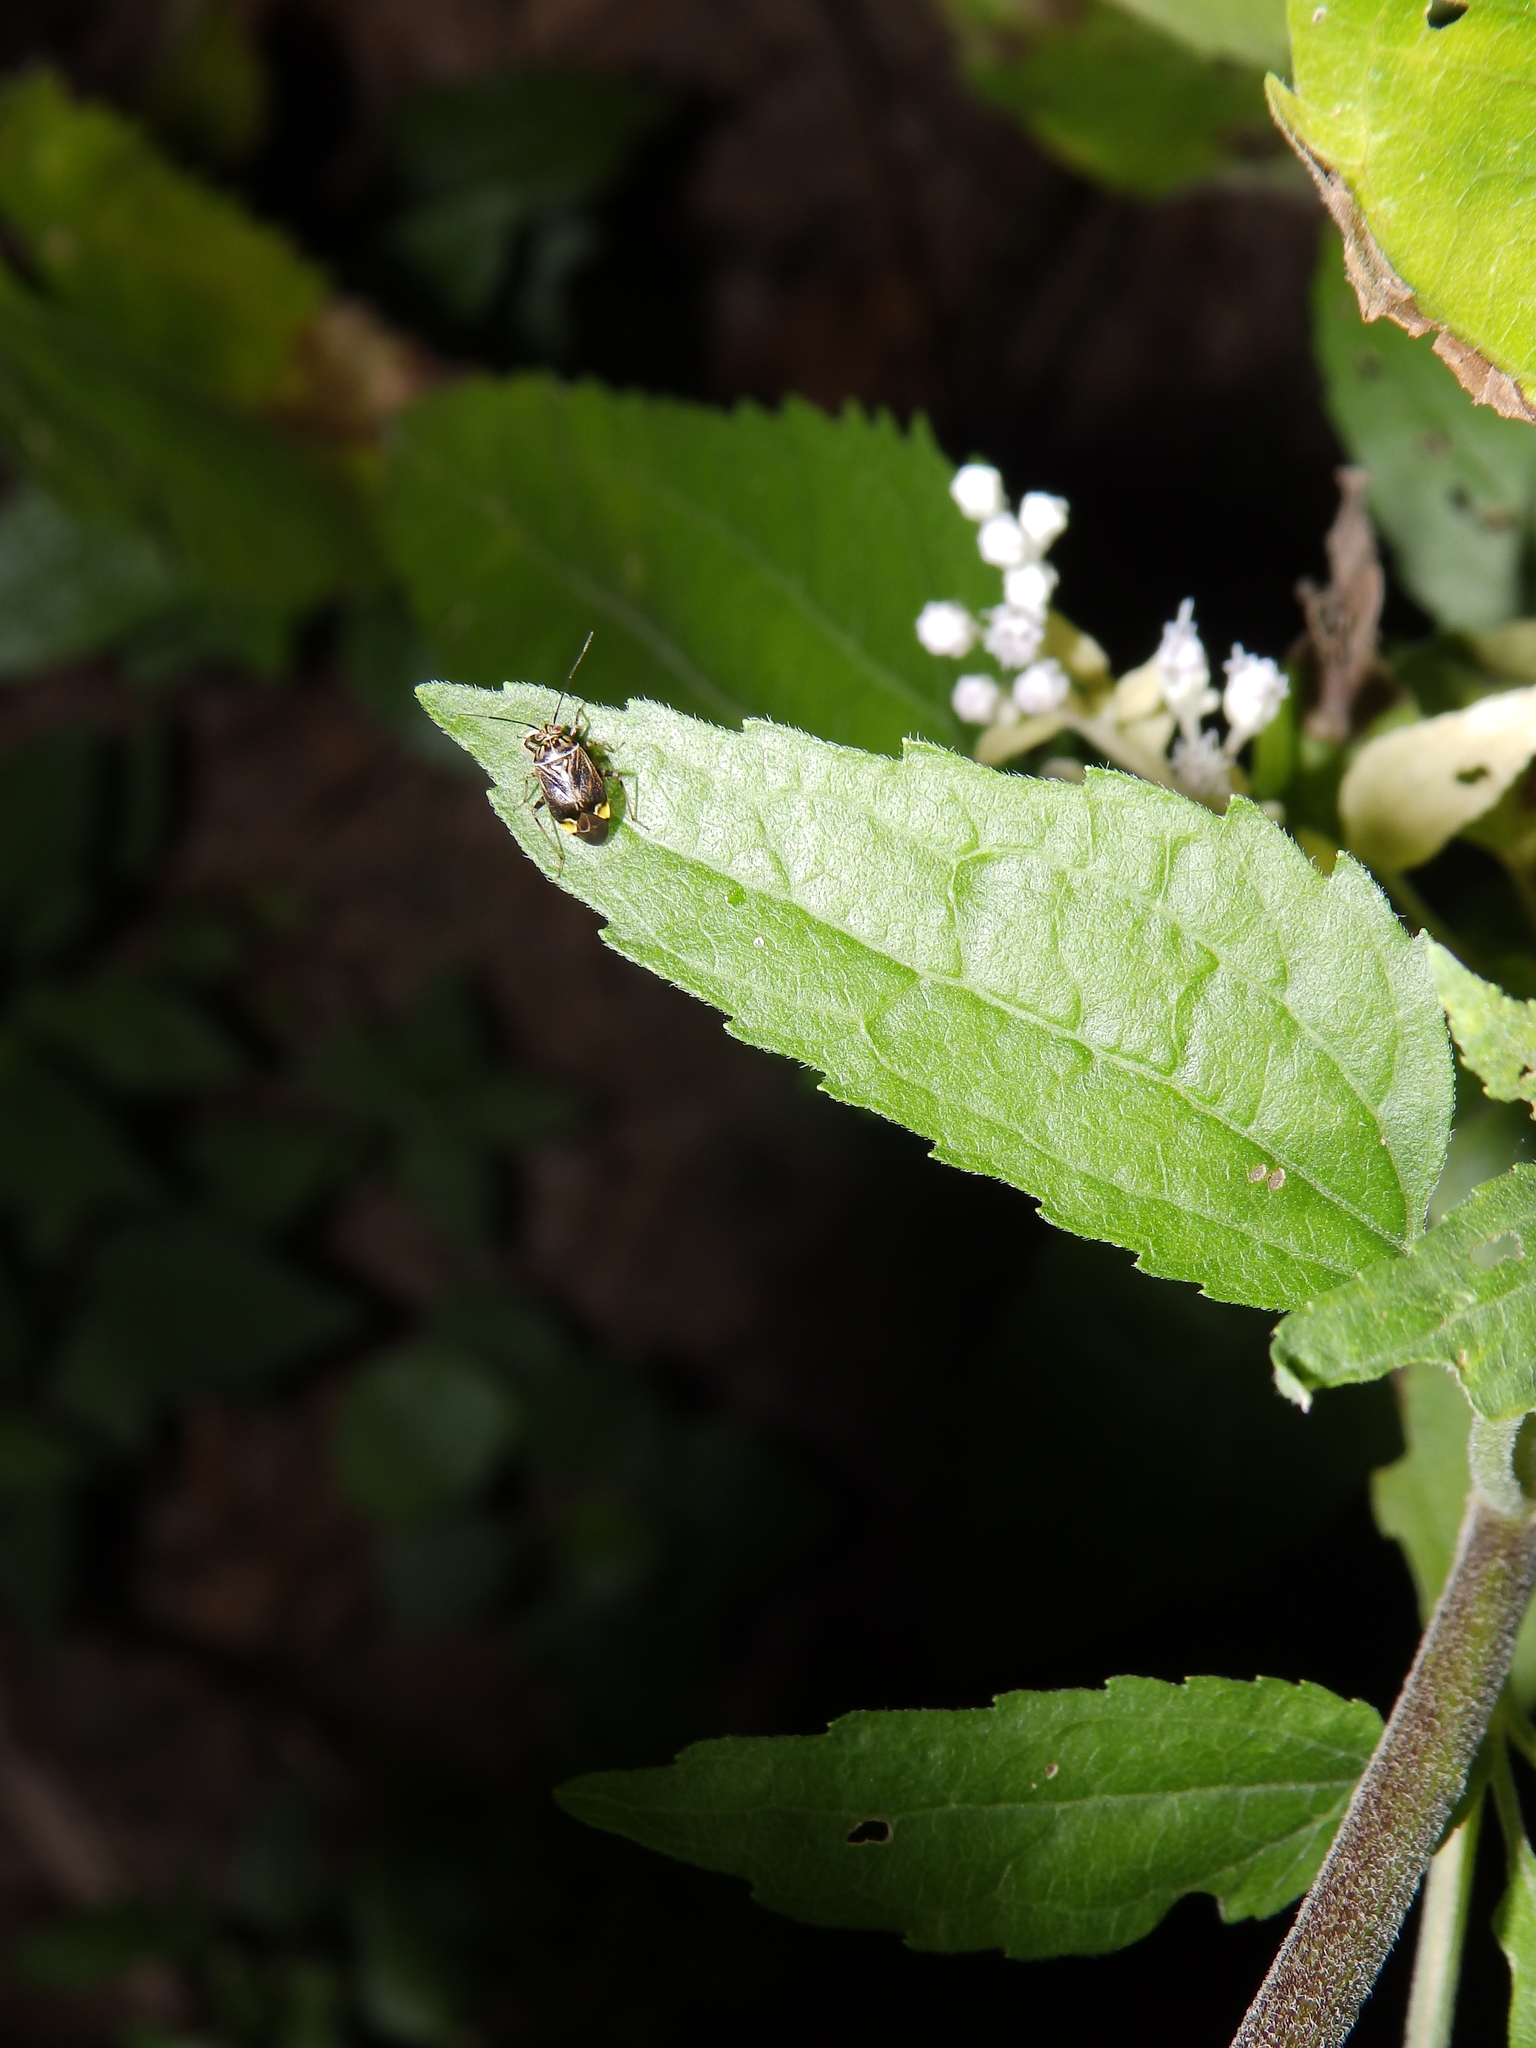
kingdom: Animalia
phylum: Arthropoda
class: Insecta
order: Hemiptera
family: Miridae
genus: Lygus
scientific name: Lygus lineolaris
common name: North american tarnished plant bug
